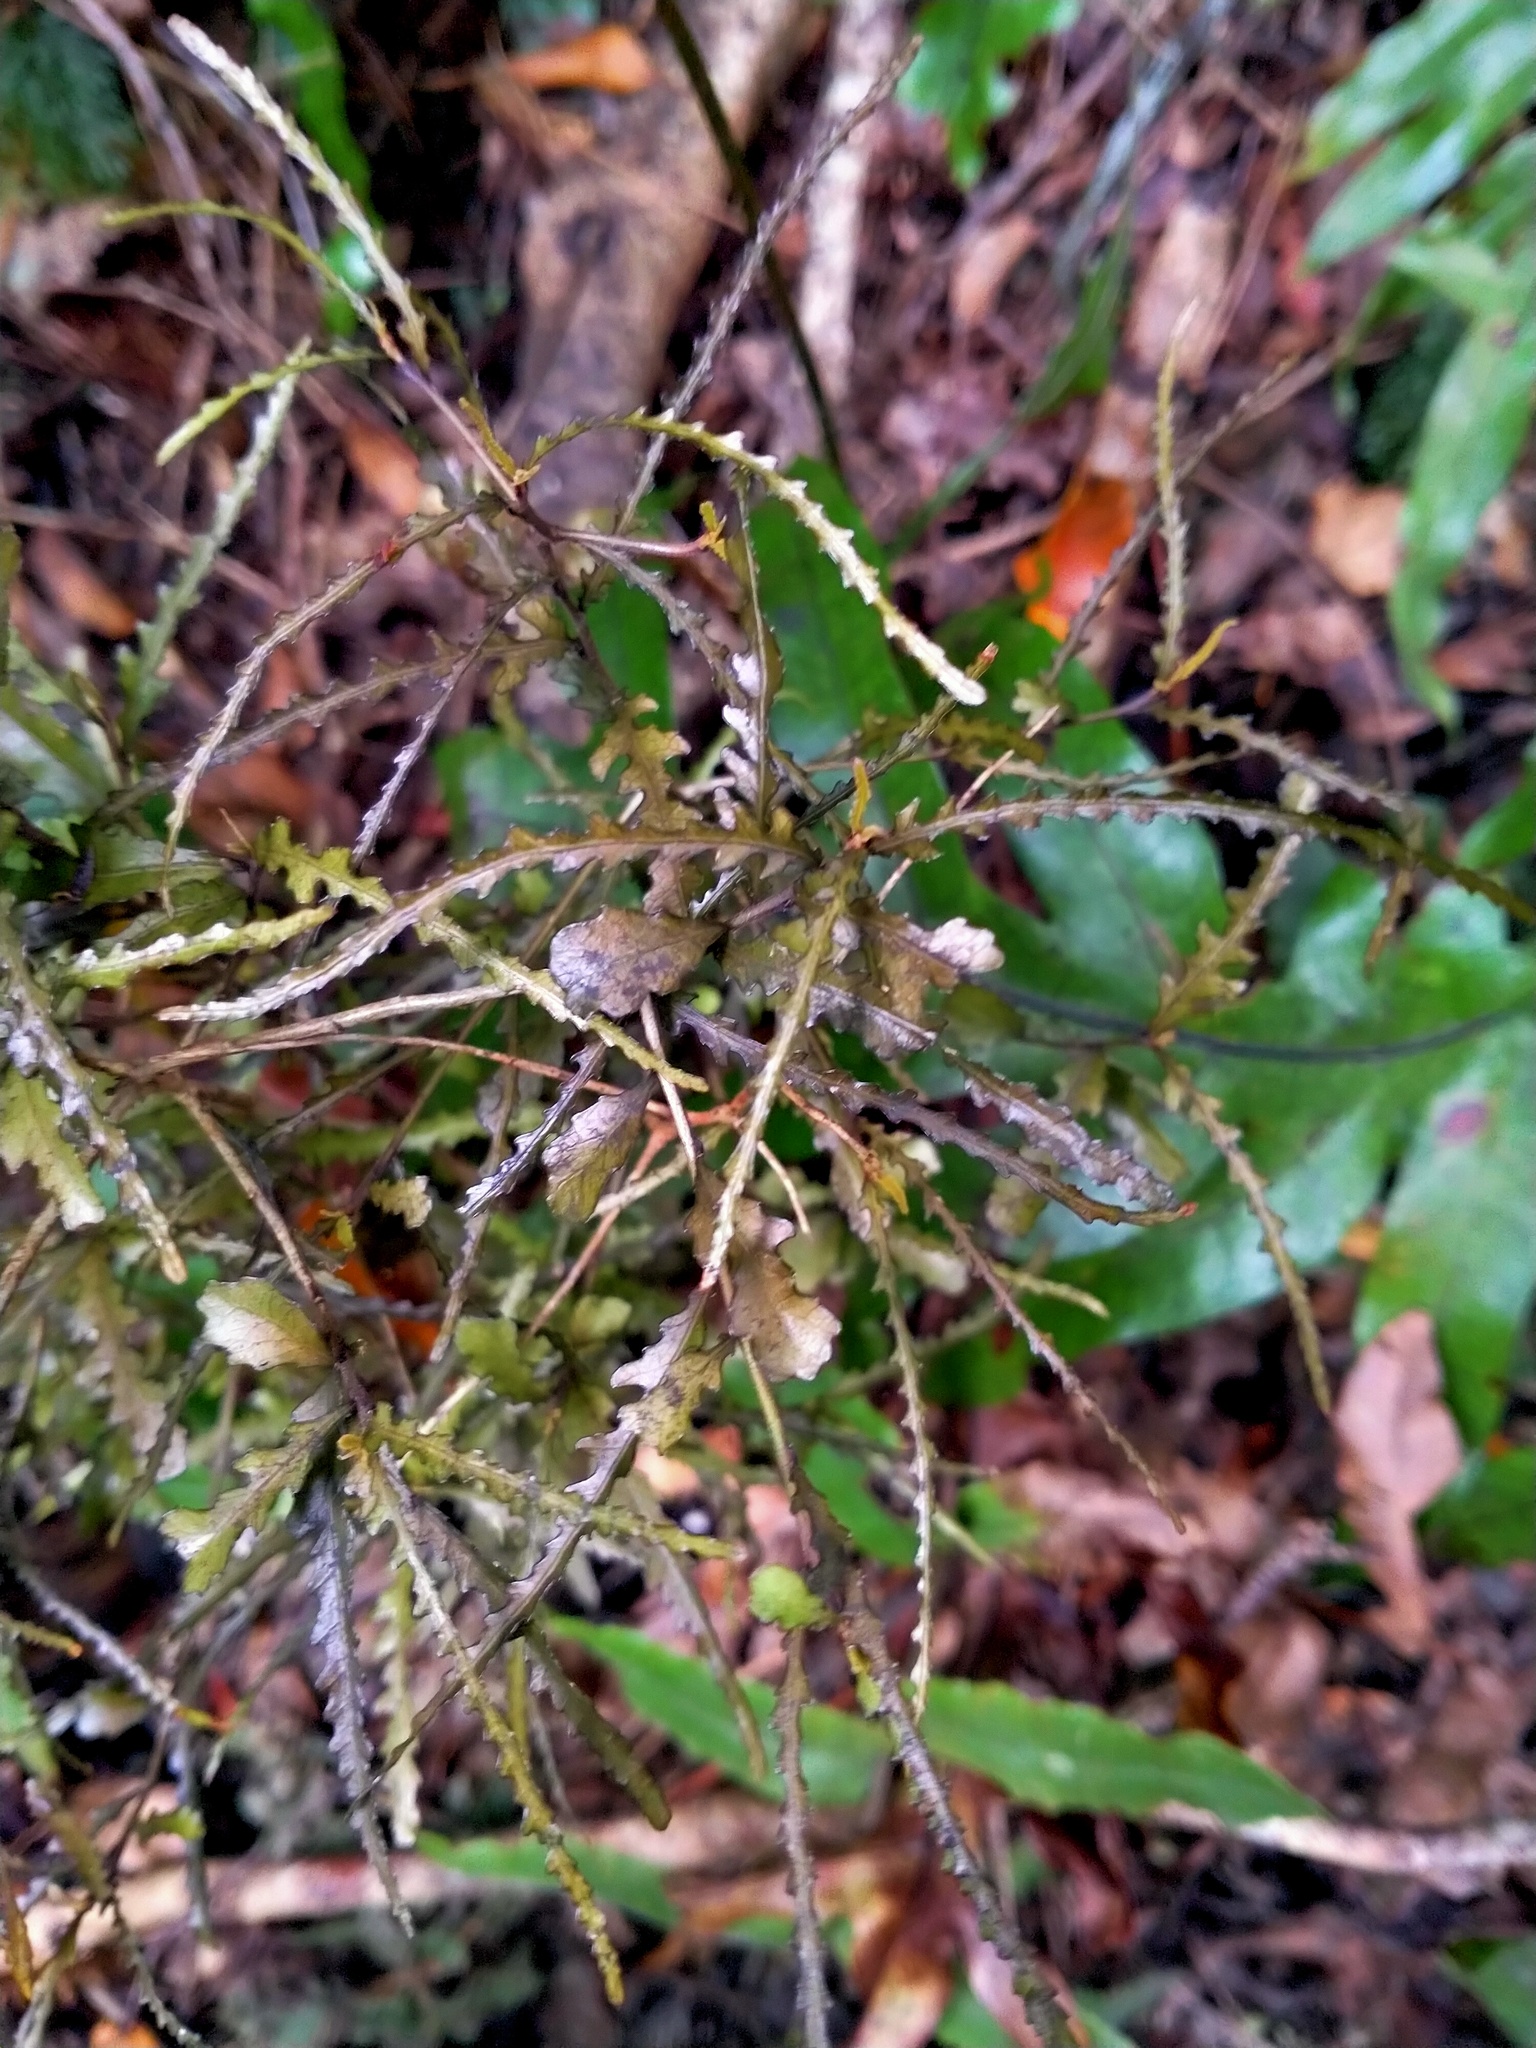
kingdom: Plantae
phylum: Tracheophyta
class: Magnoliopsida
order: Oxalidales
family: Elaeocarpaceae
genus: Elaeocarpus
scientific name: Elaeocarpus hookerianus
